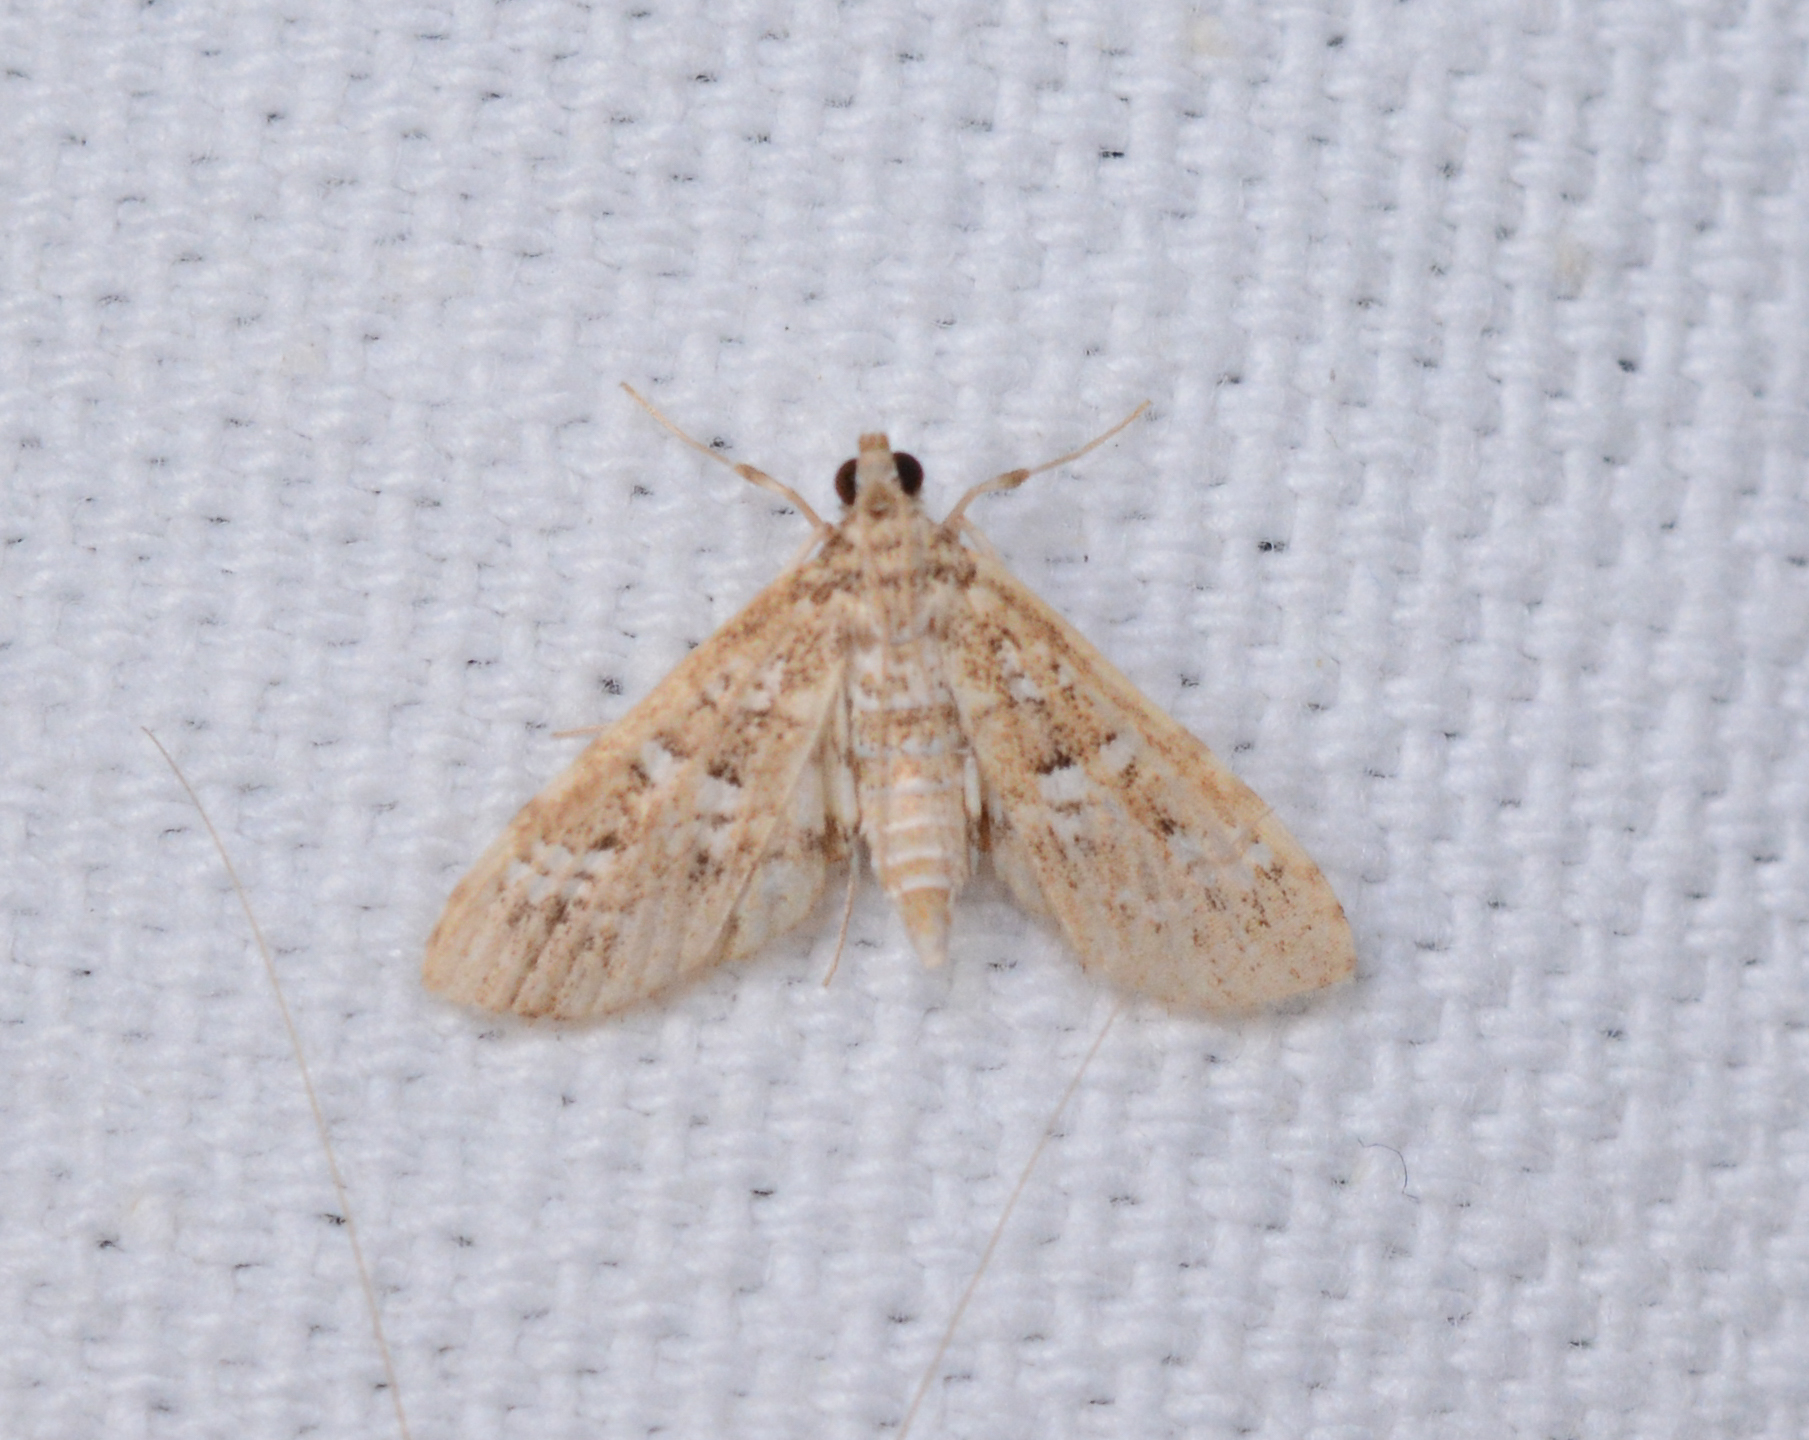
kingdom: Animalia
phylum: Arthropoda
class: Insecta
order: Lepidoptera
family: Crambidae
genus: Samea
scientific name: Samea multiplicalis
